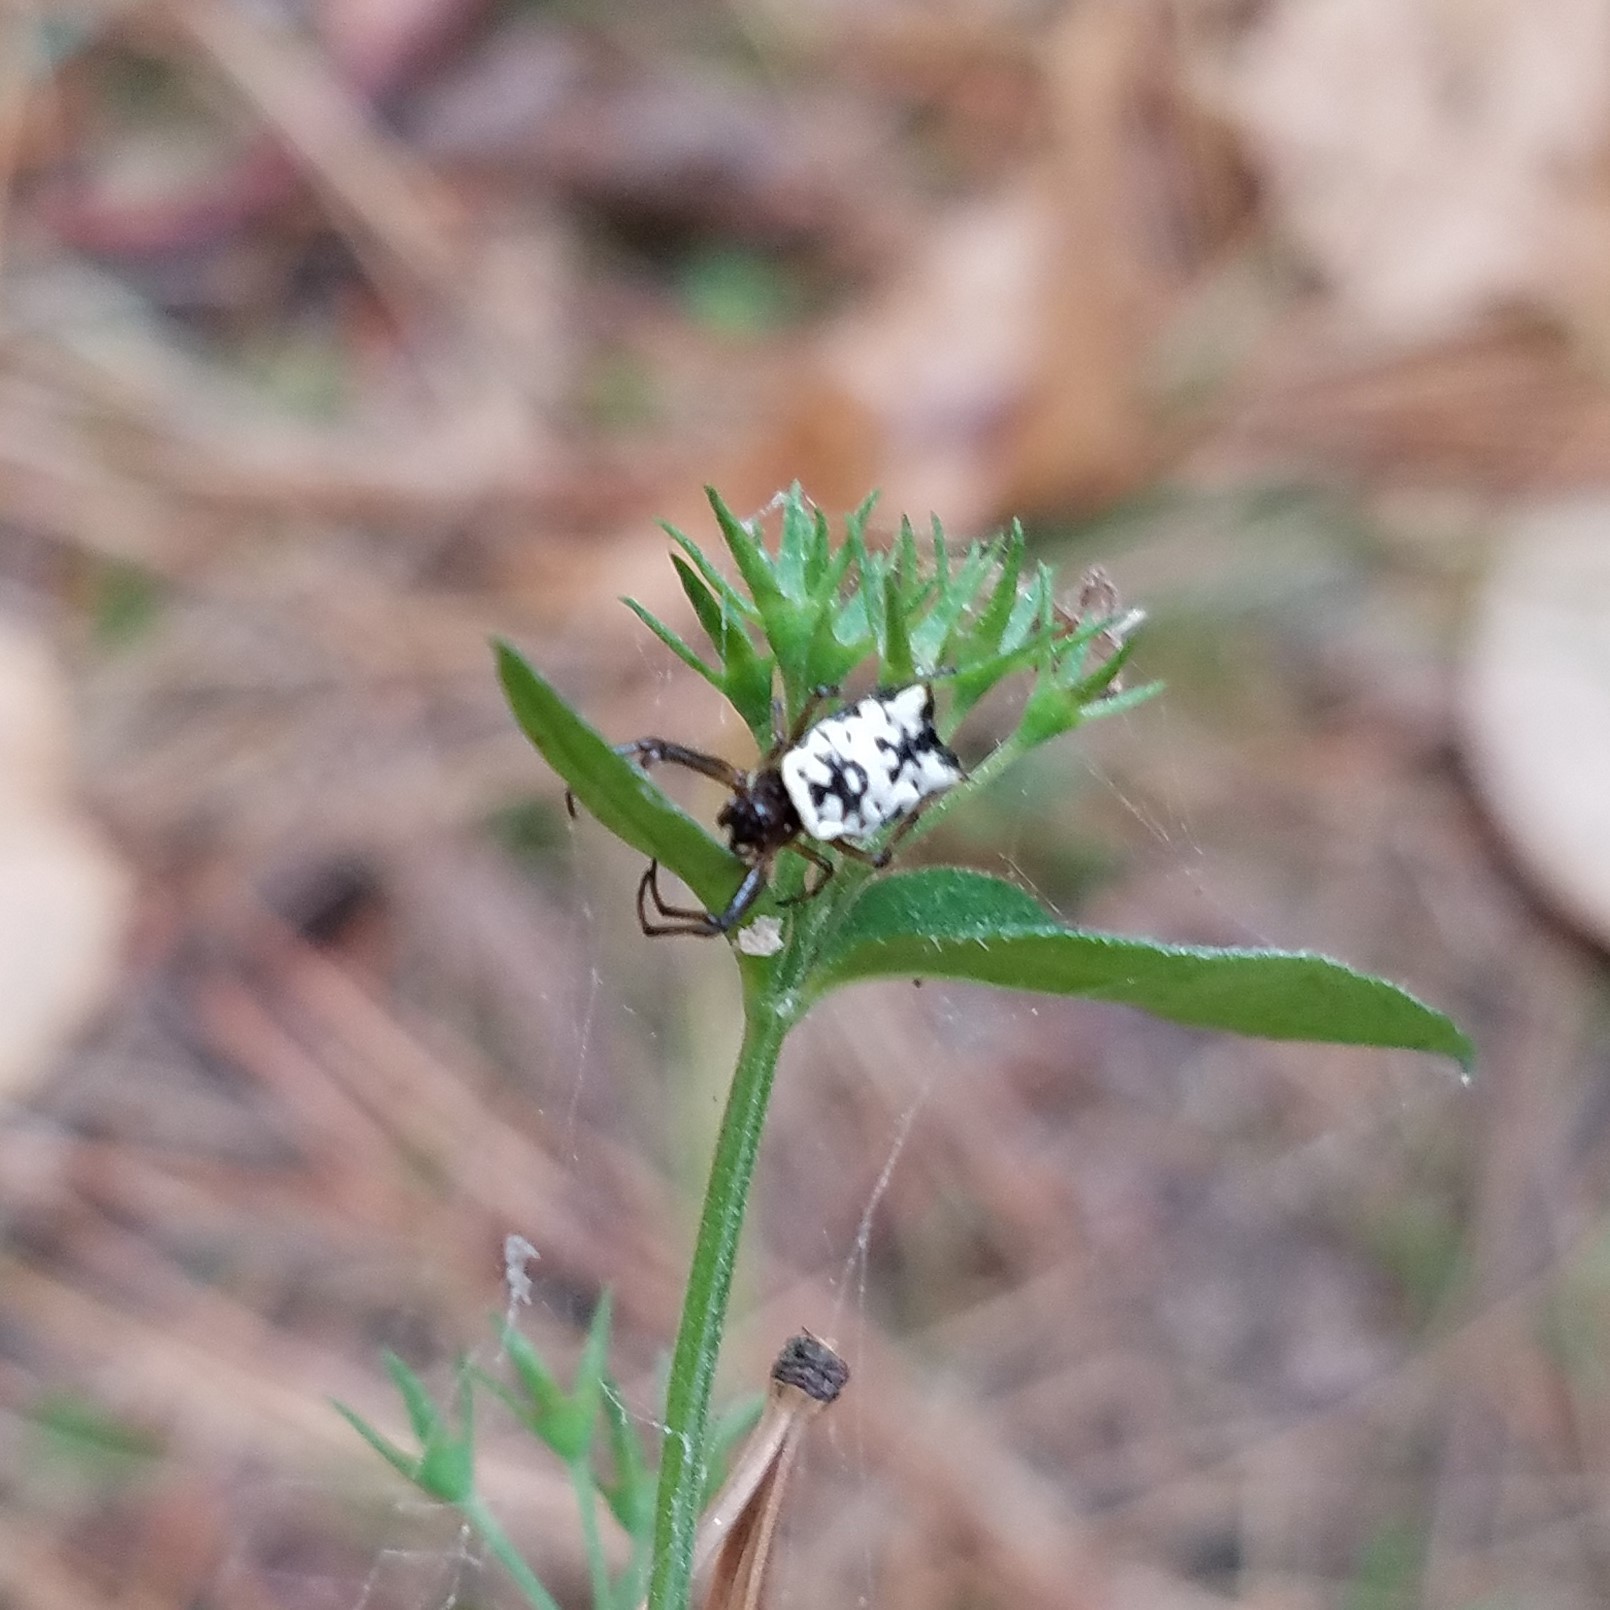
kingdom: Animalia
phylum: Arthropoda
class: Arachnida
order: Araneae
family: Araneidae
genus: Micrathena
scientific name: Micrathena mitrata
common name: Orb weavers
